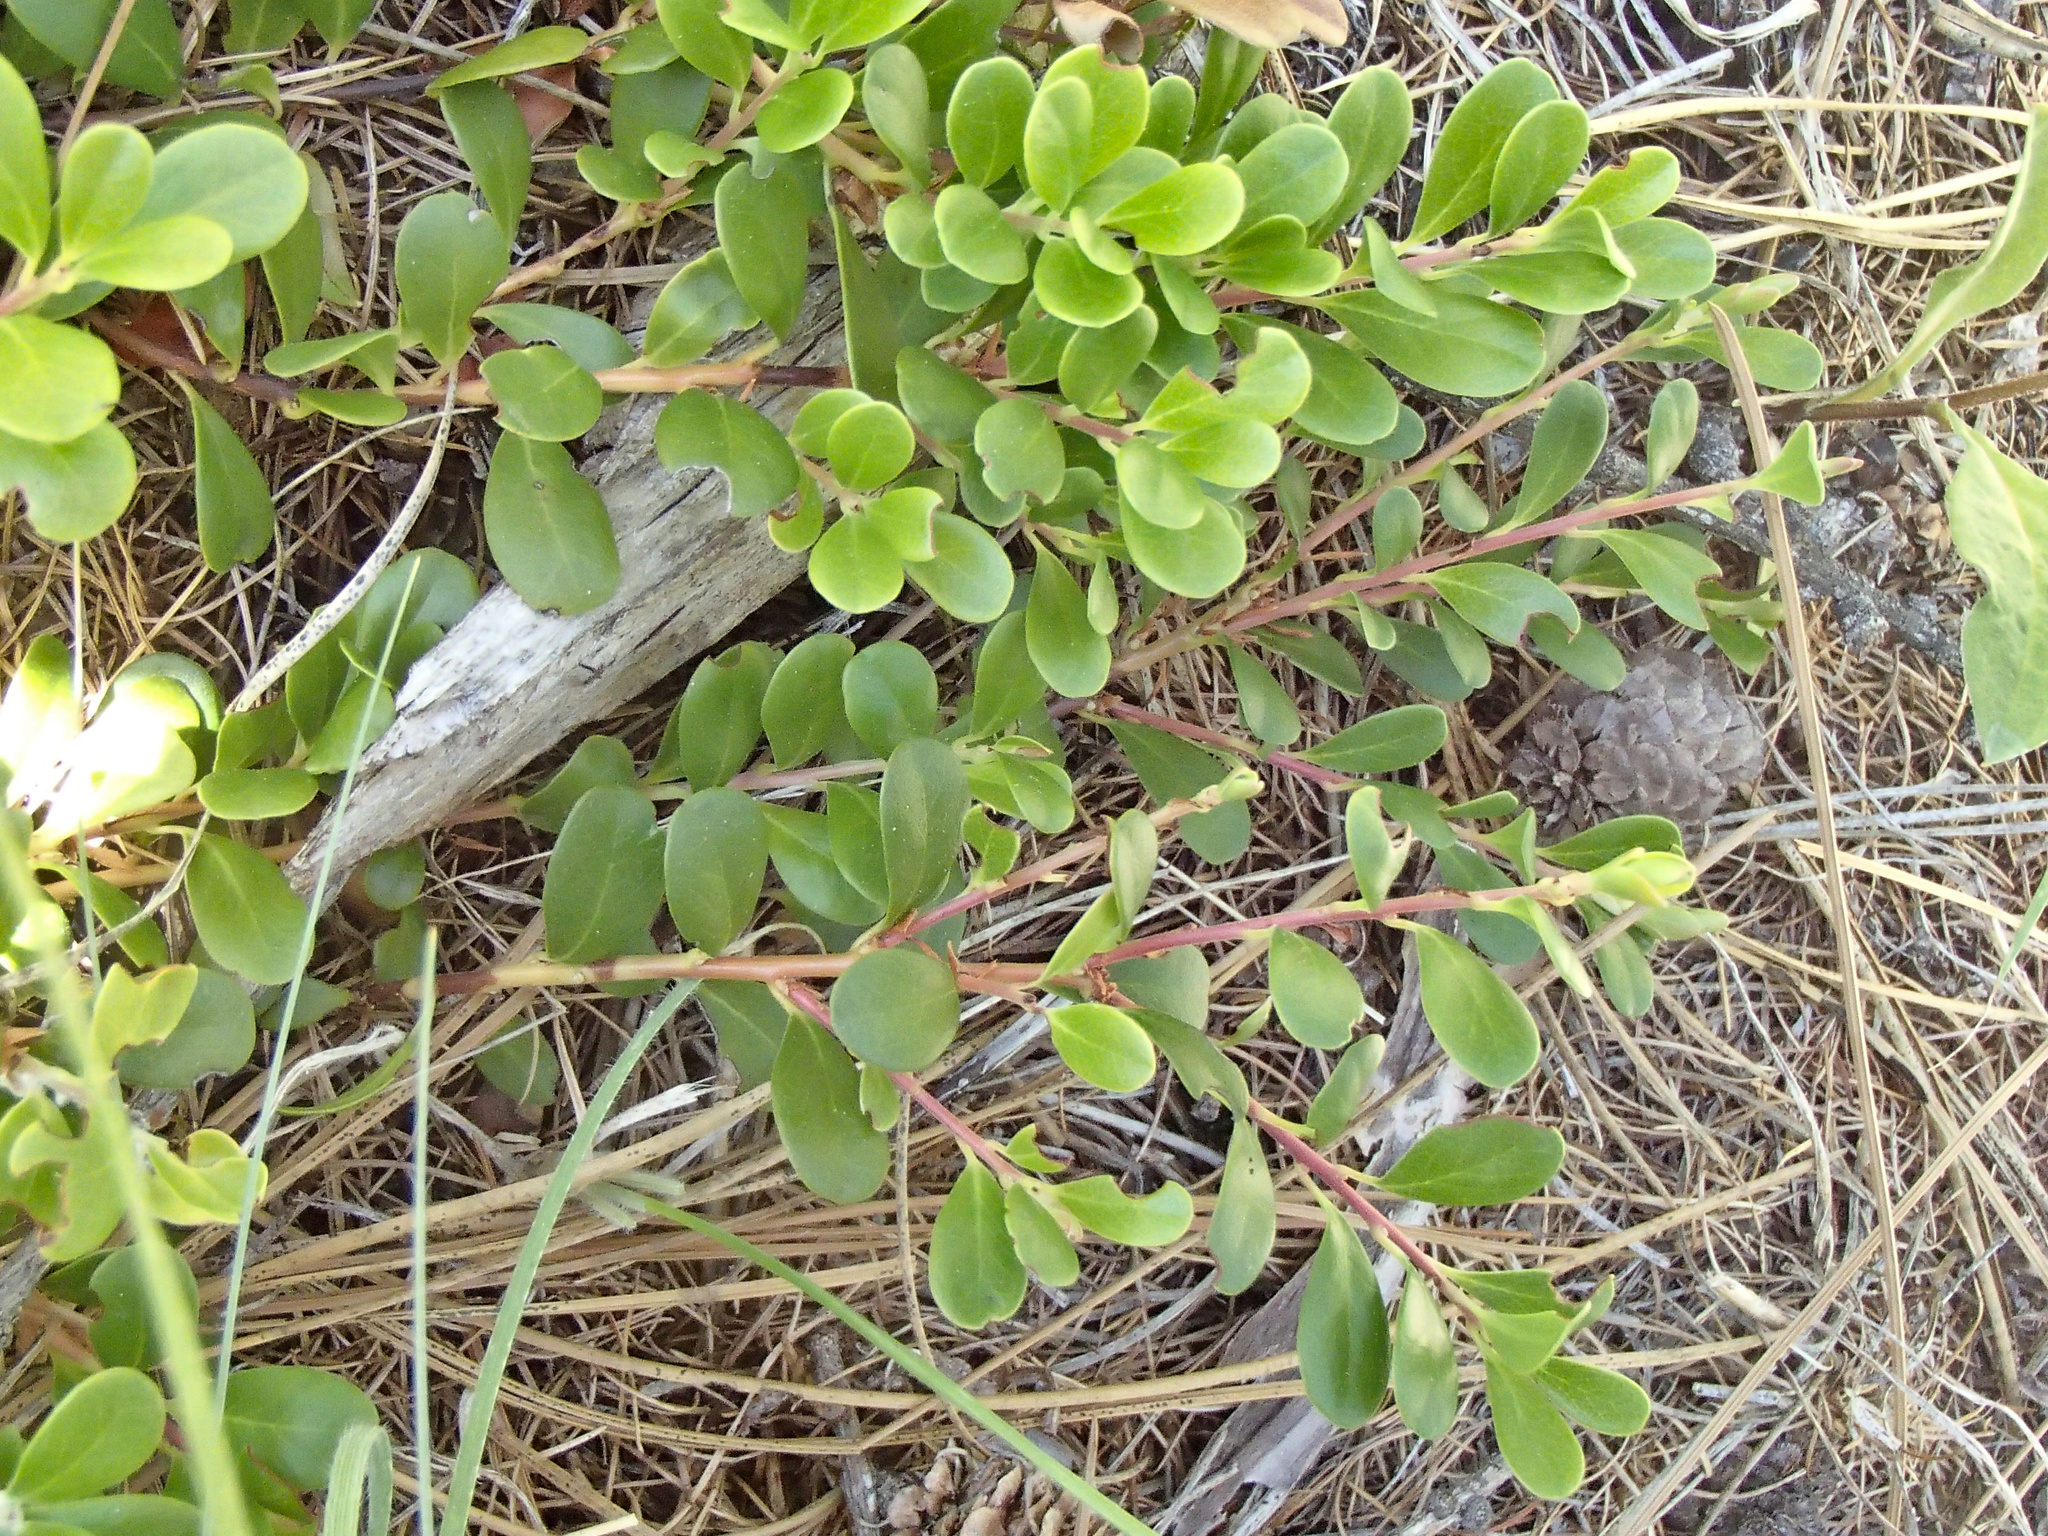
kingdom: Plantae
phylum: Tracheophyta
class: Magnoliopsida
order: Ericales
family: Ericaceae
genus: Arctostaphylos
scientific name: Arctostaphylos uva-ursi
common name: Bearberry
